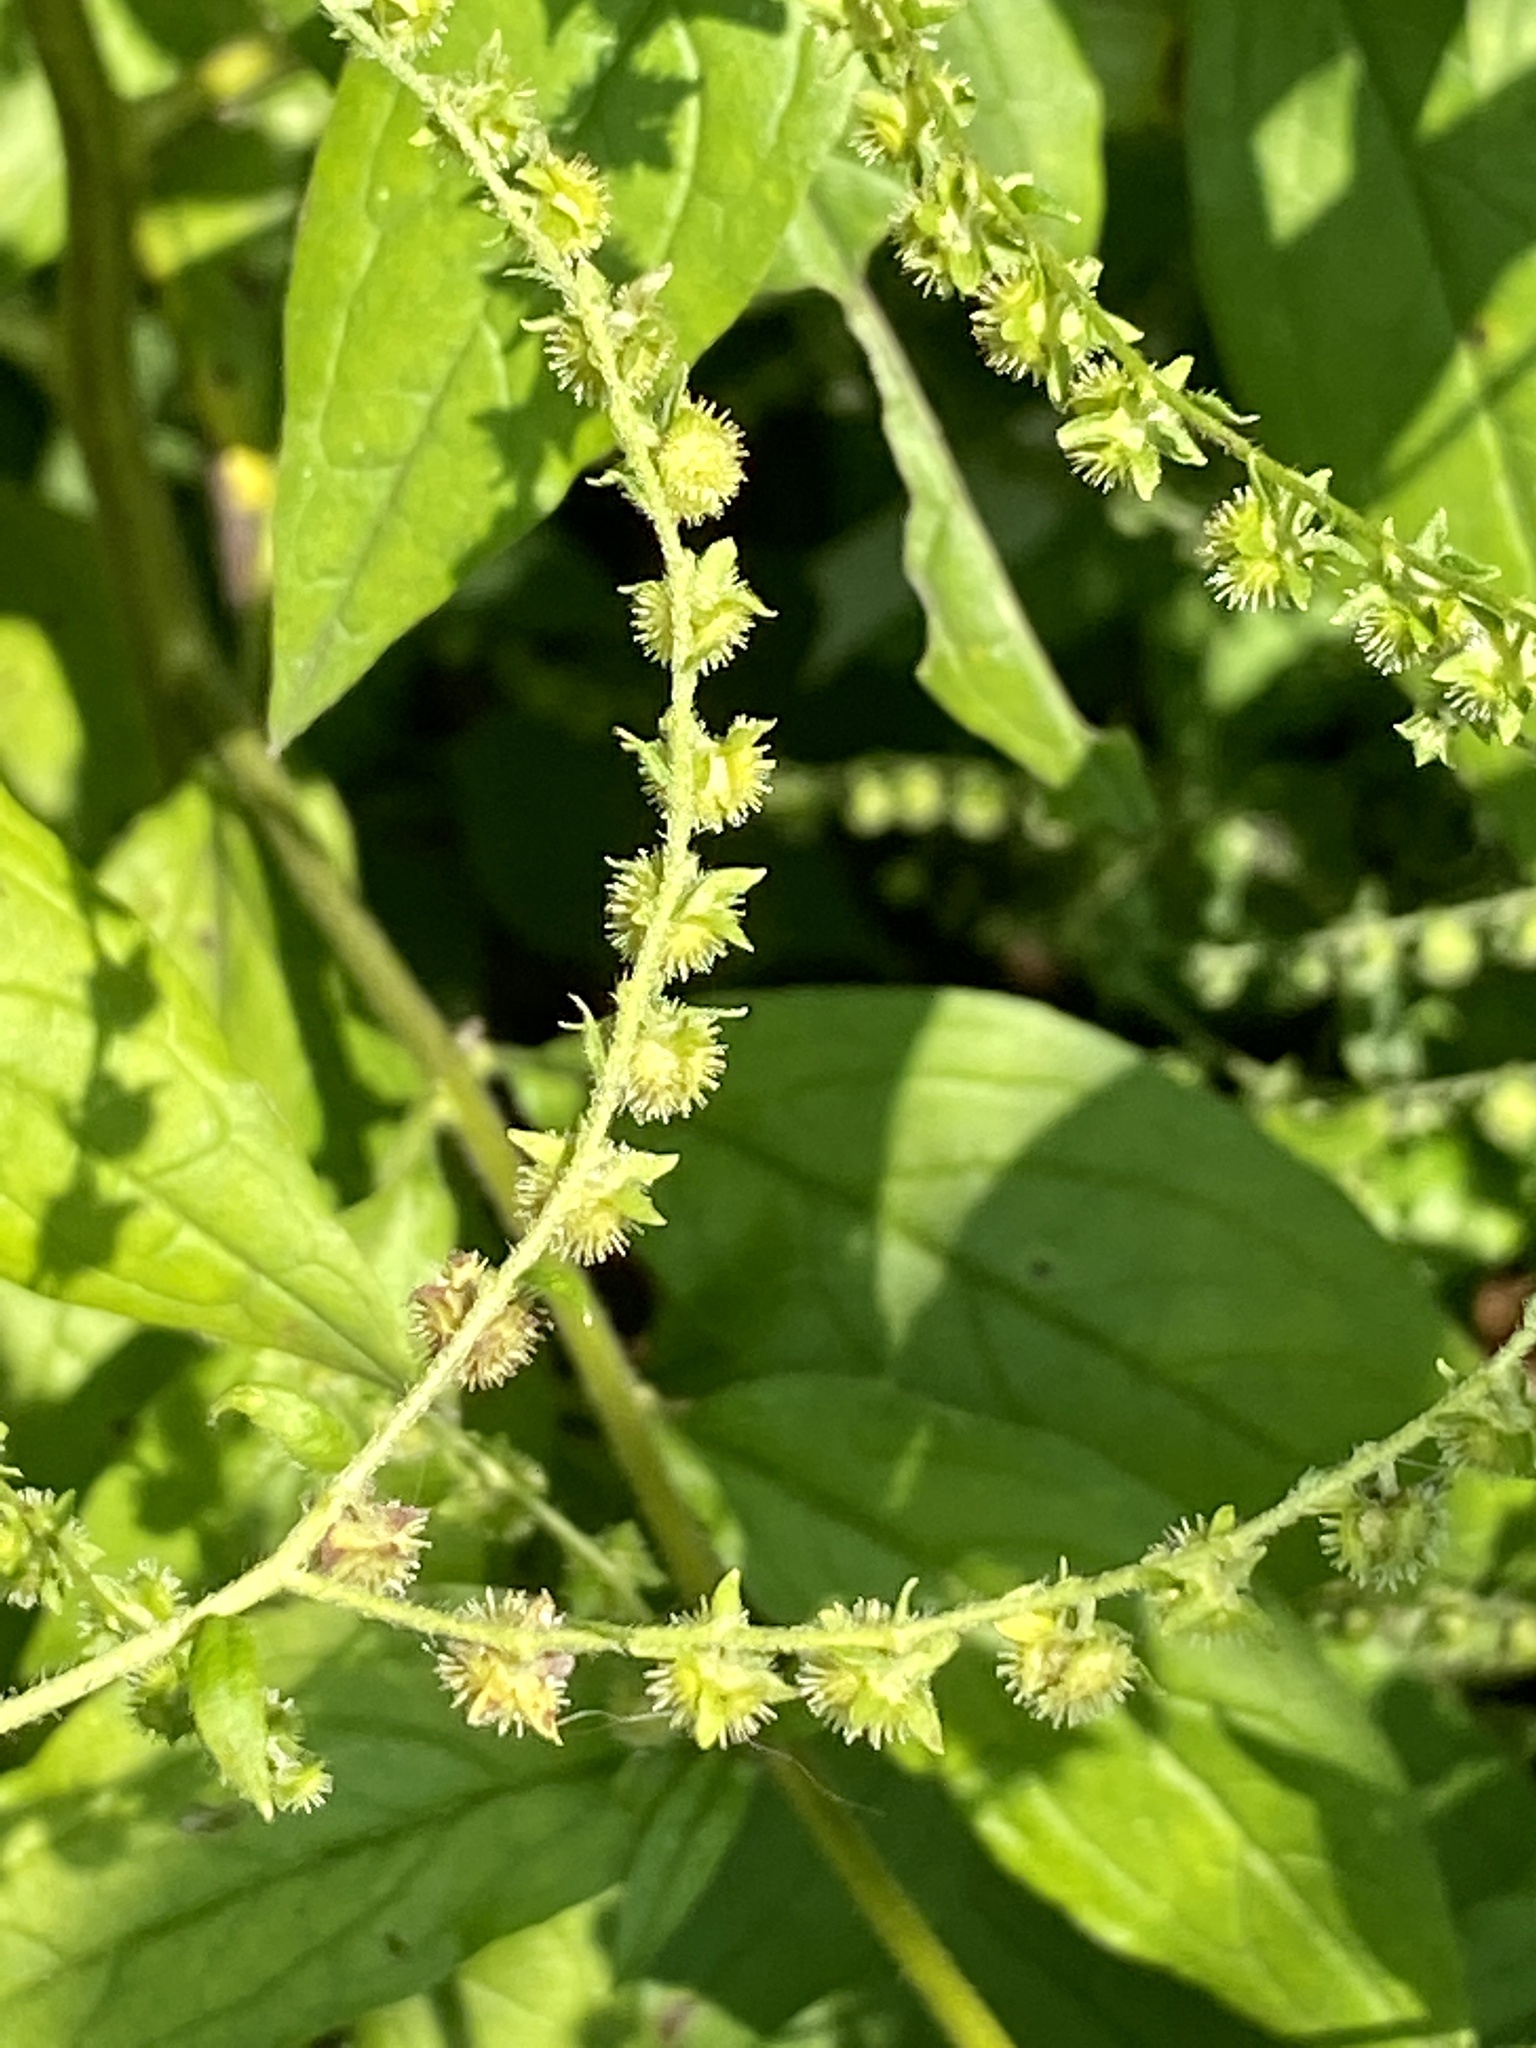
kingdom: Plantae
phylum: Tracheophyta
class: Magnoliopsida
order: Boraginales
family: Boraginaceae
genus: Hackelia
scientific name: Hackelia virginiana
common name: Beggar's-lice
